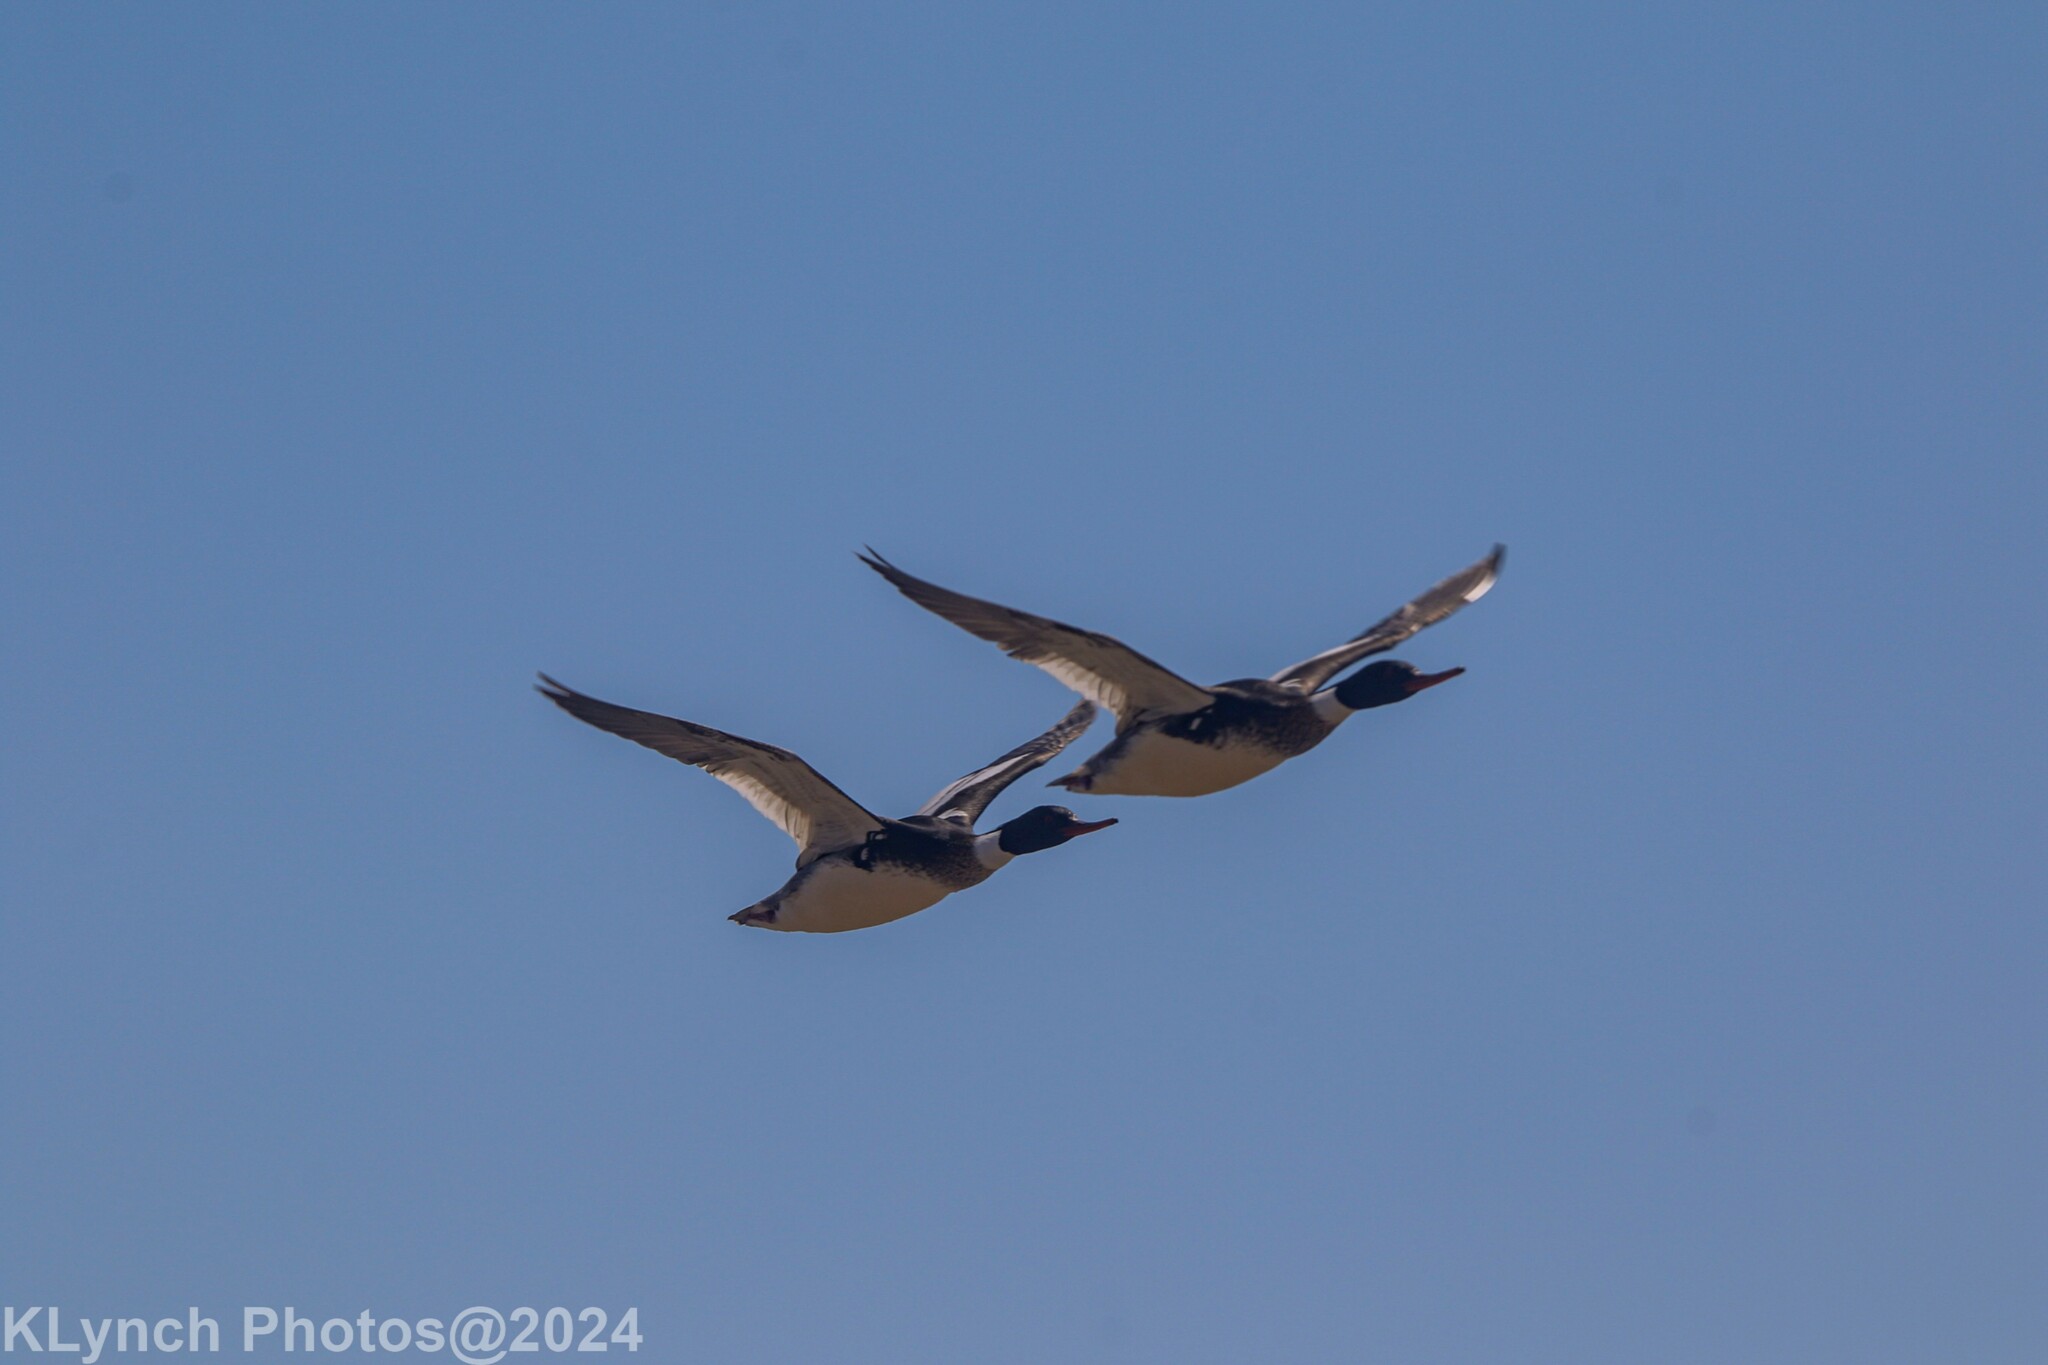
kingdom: Animalia
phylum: Chordata
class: Aves
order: Anseriformes
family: Anatidae
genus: Mergus
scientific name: Mergus serrator
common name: Red-breasted merganser
